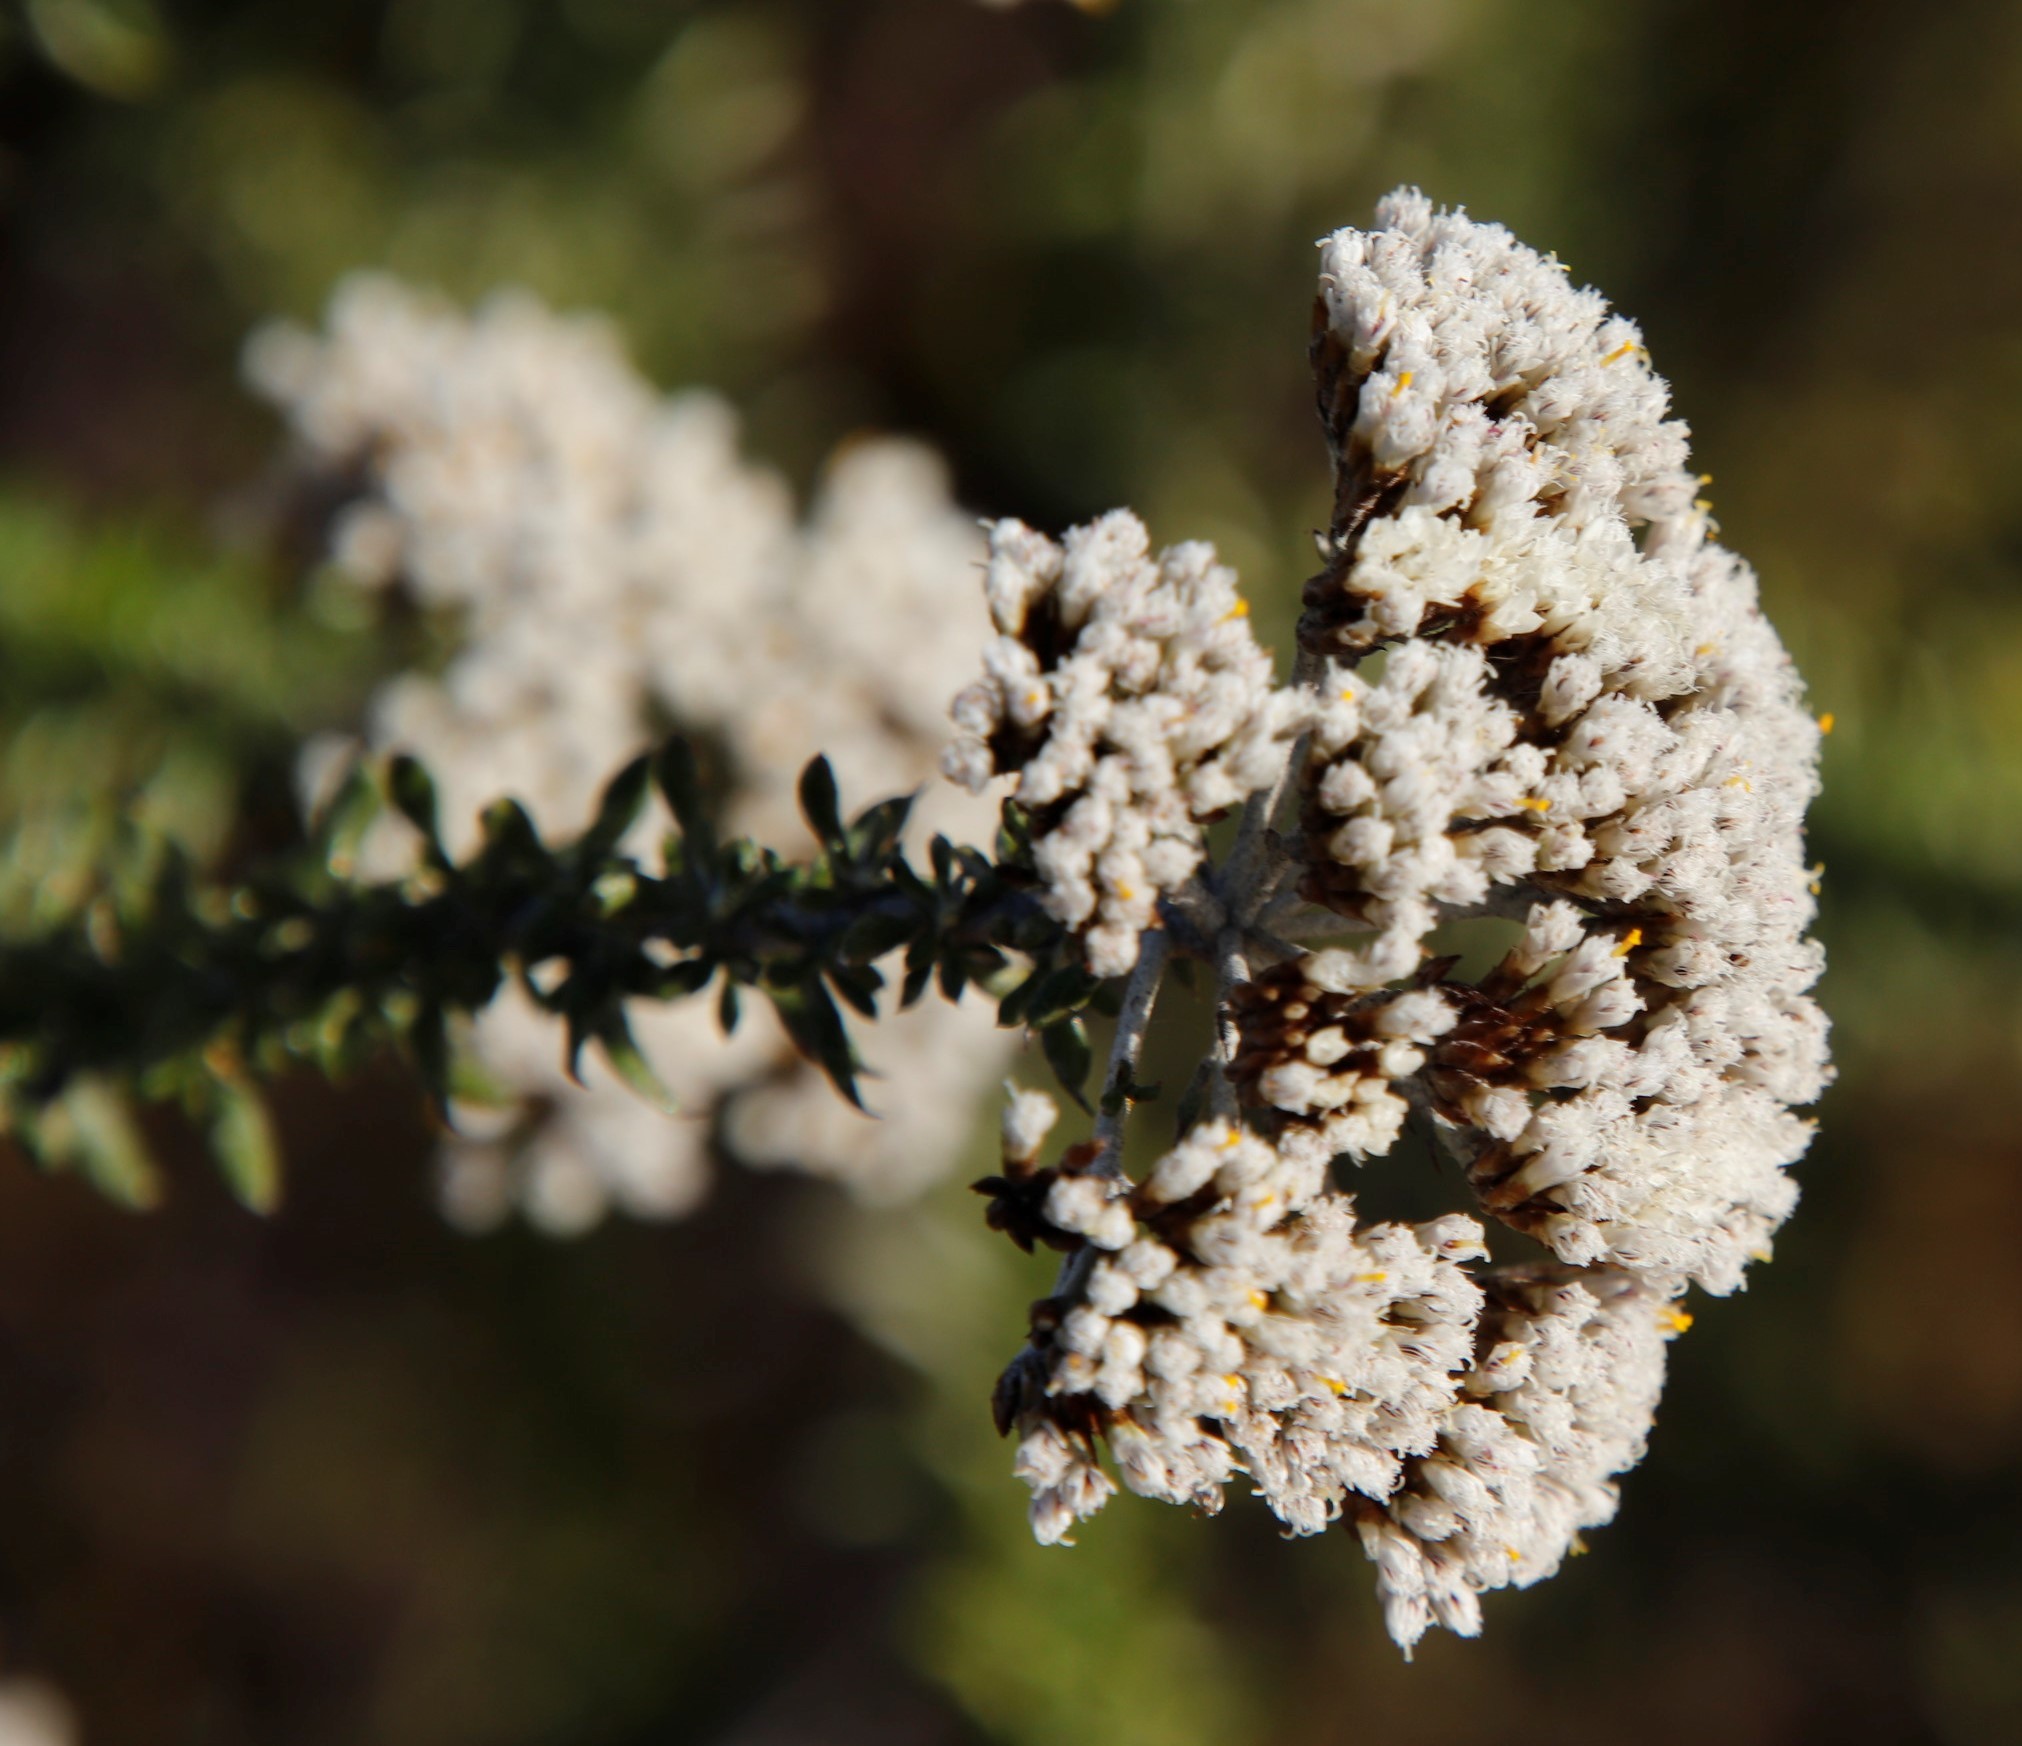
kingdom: Plantae
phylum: Tracheophyta
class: Magnoliopsida
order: Asterales
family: Asteraceae
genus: Metalasia
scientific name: Metalasia densa
